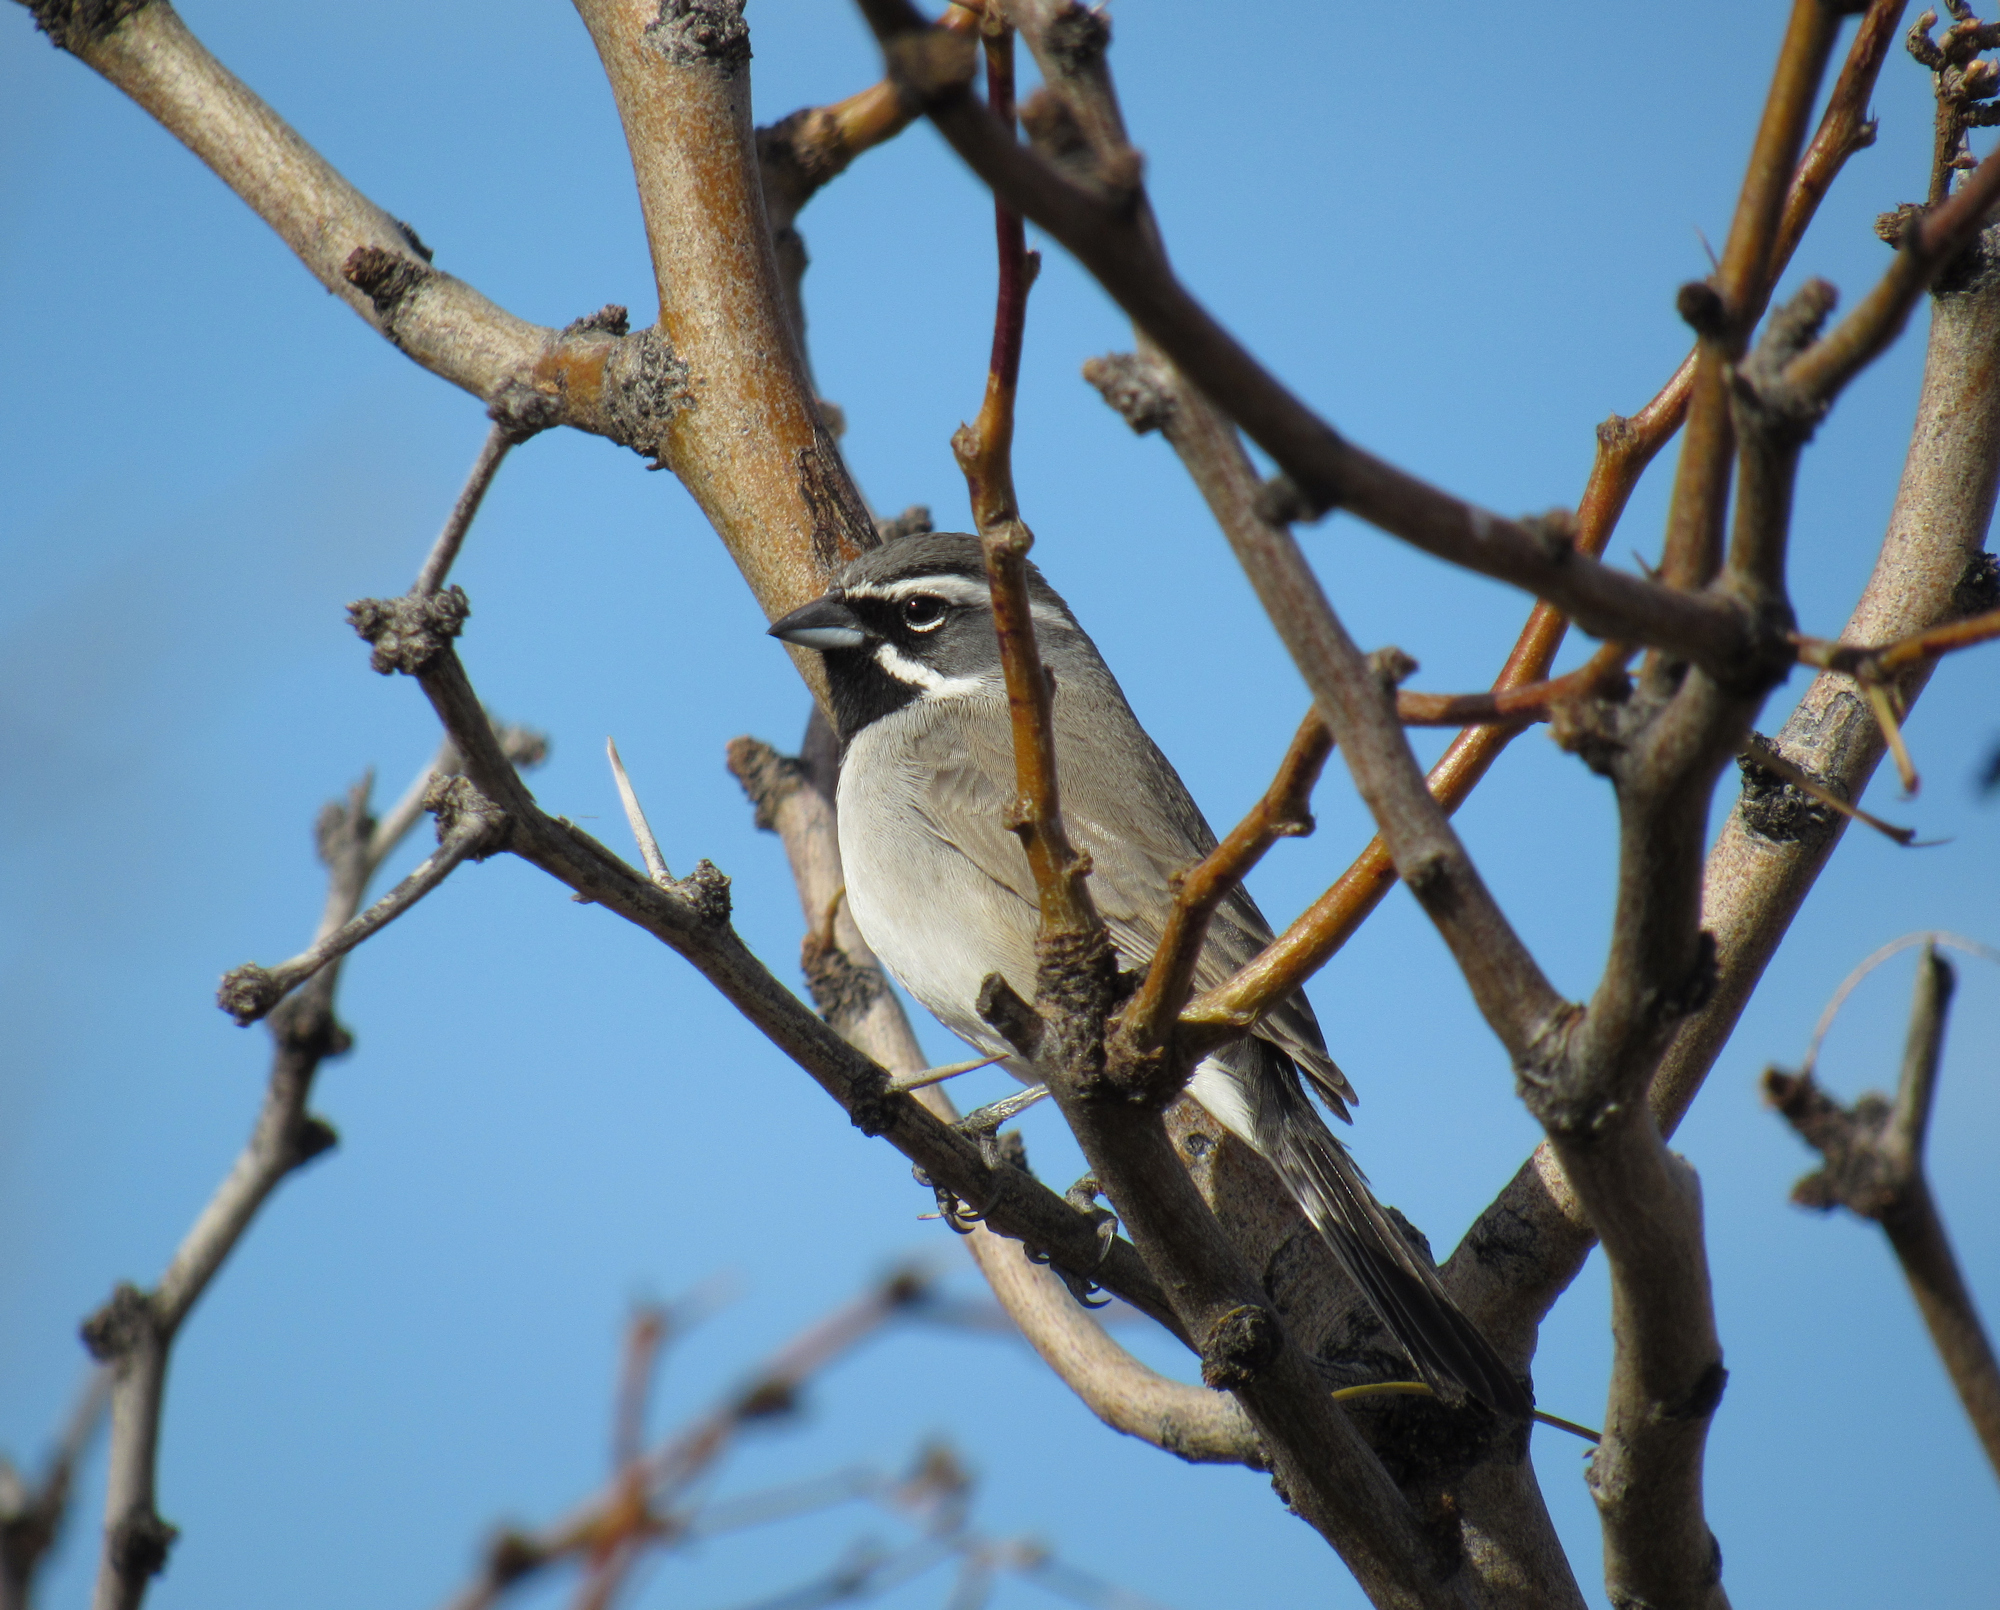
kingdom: Animalia
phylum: Chordata
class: Aves
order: Passeriformes
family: Passerellidae
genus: Amphispiza
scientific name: Amphispiza bilineata
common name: Black-throated sparrow
